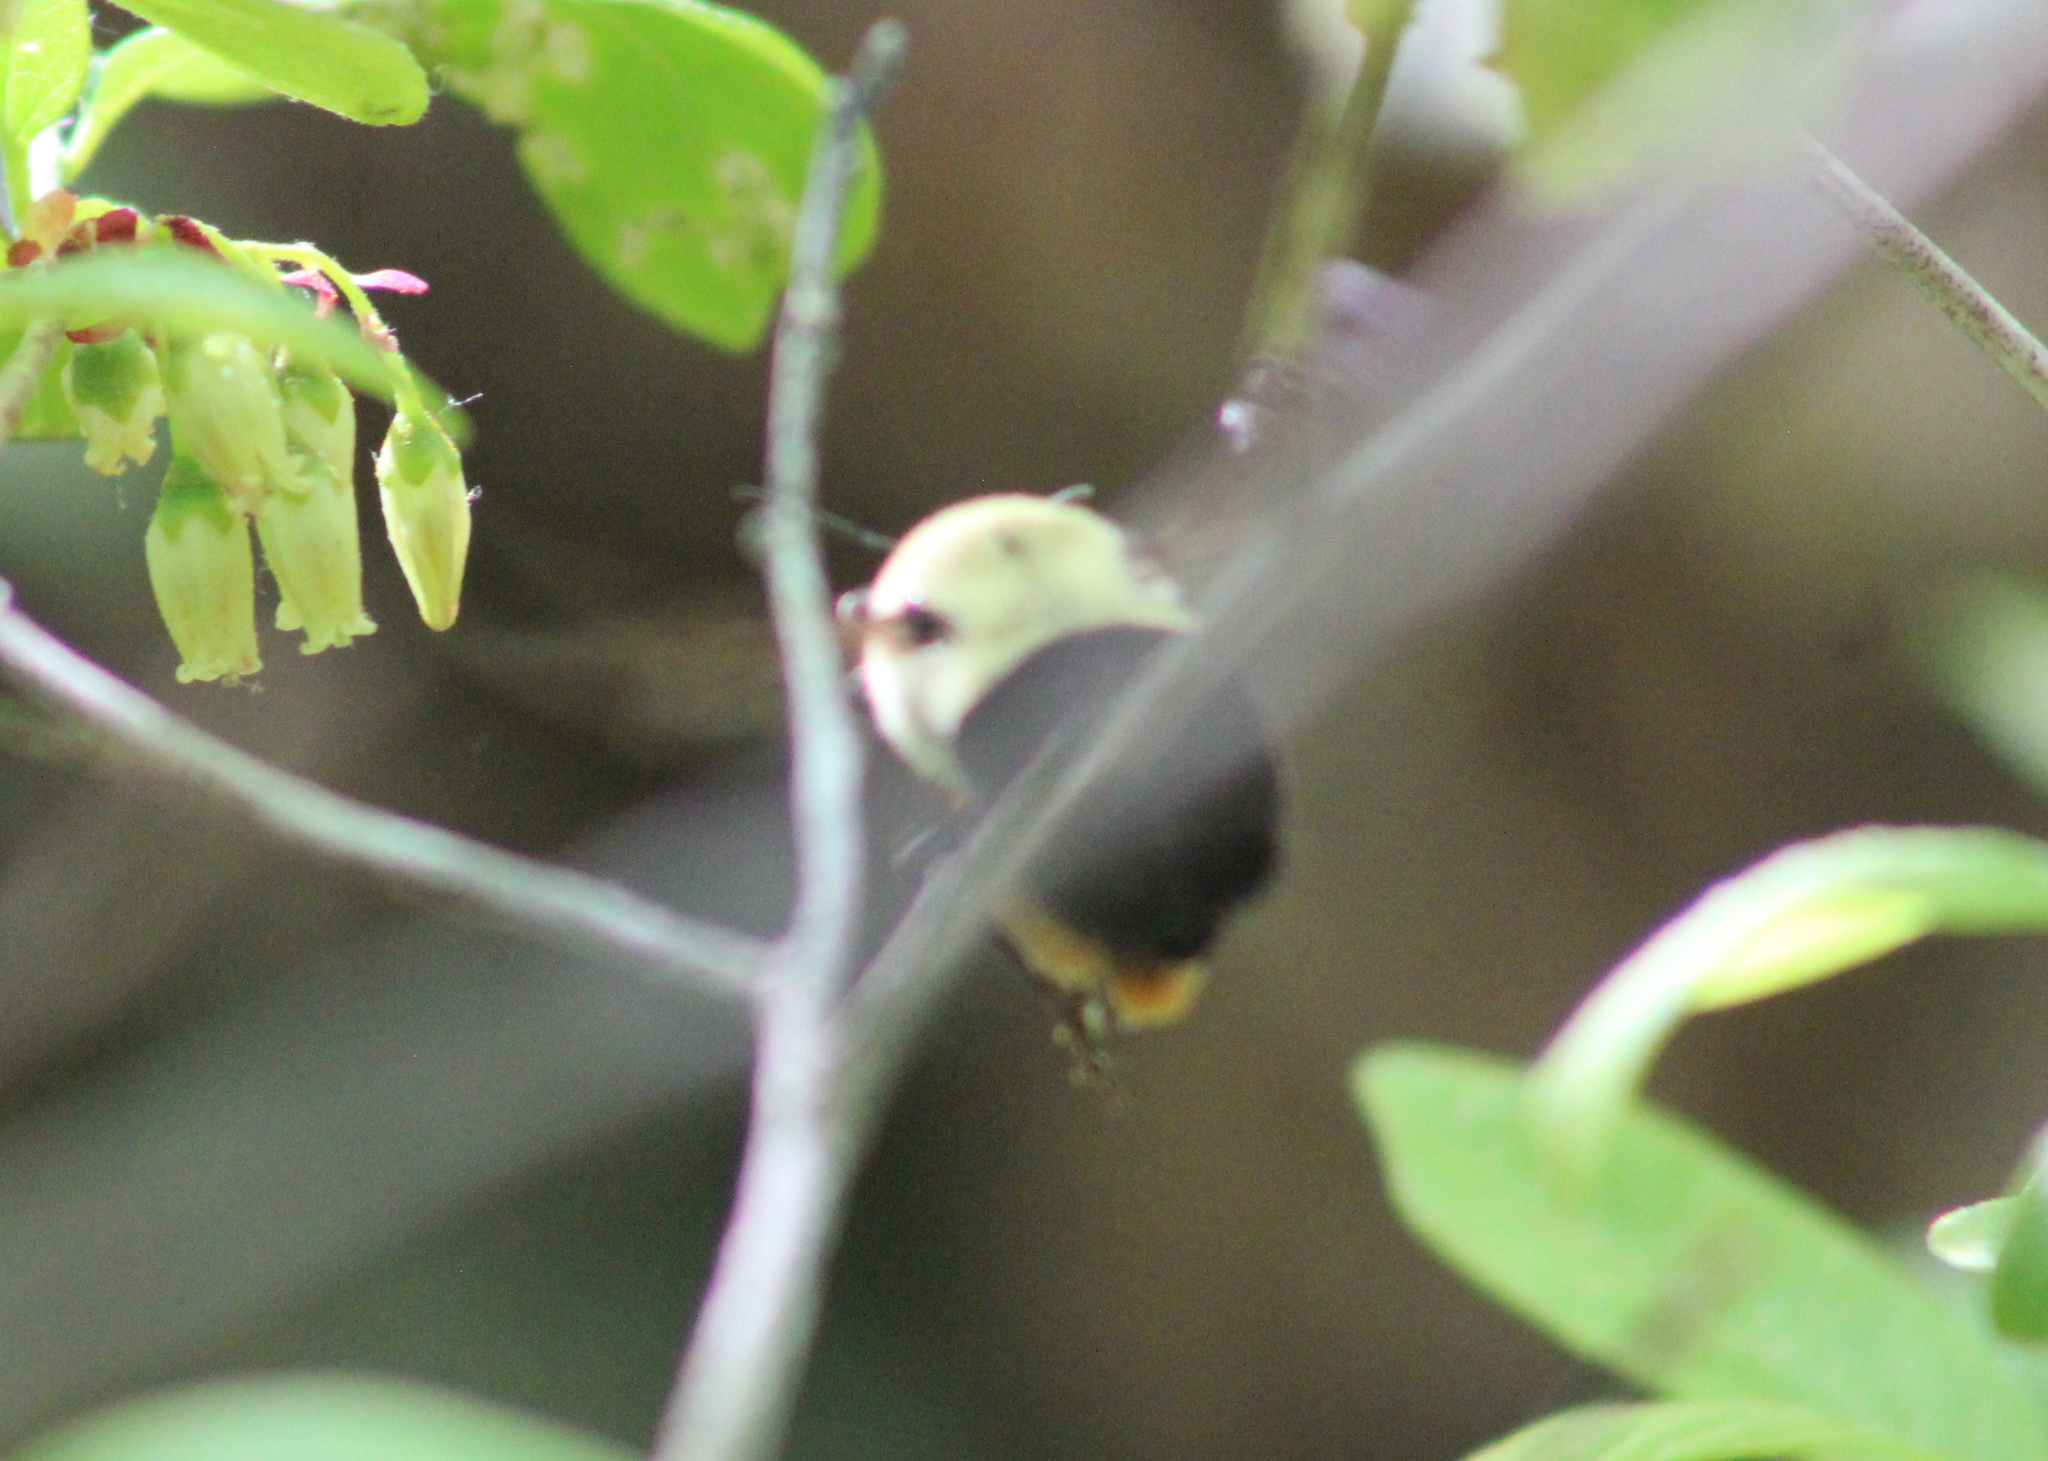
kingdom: Animalia
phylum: Arthropoda
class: Insecta
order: Hymenoptera
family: Apidae
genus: Bombus
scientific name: Bombus impatiens
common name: Common eastern bumble bee
